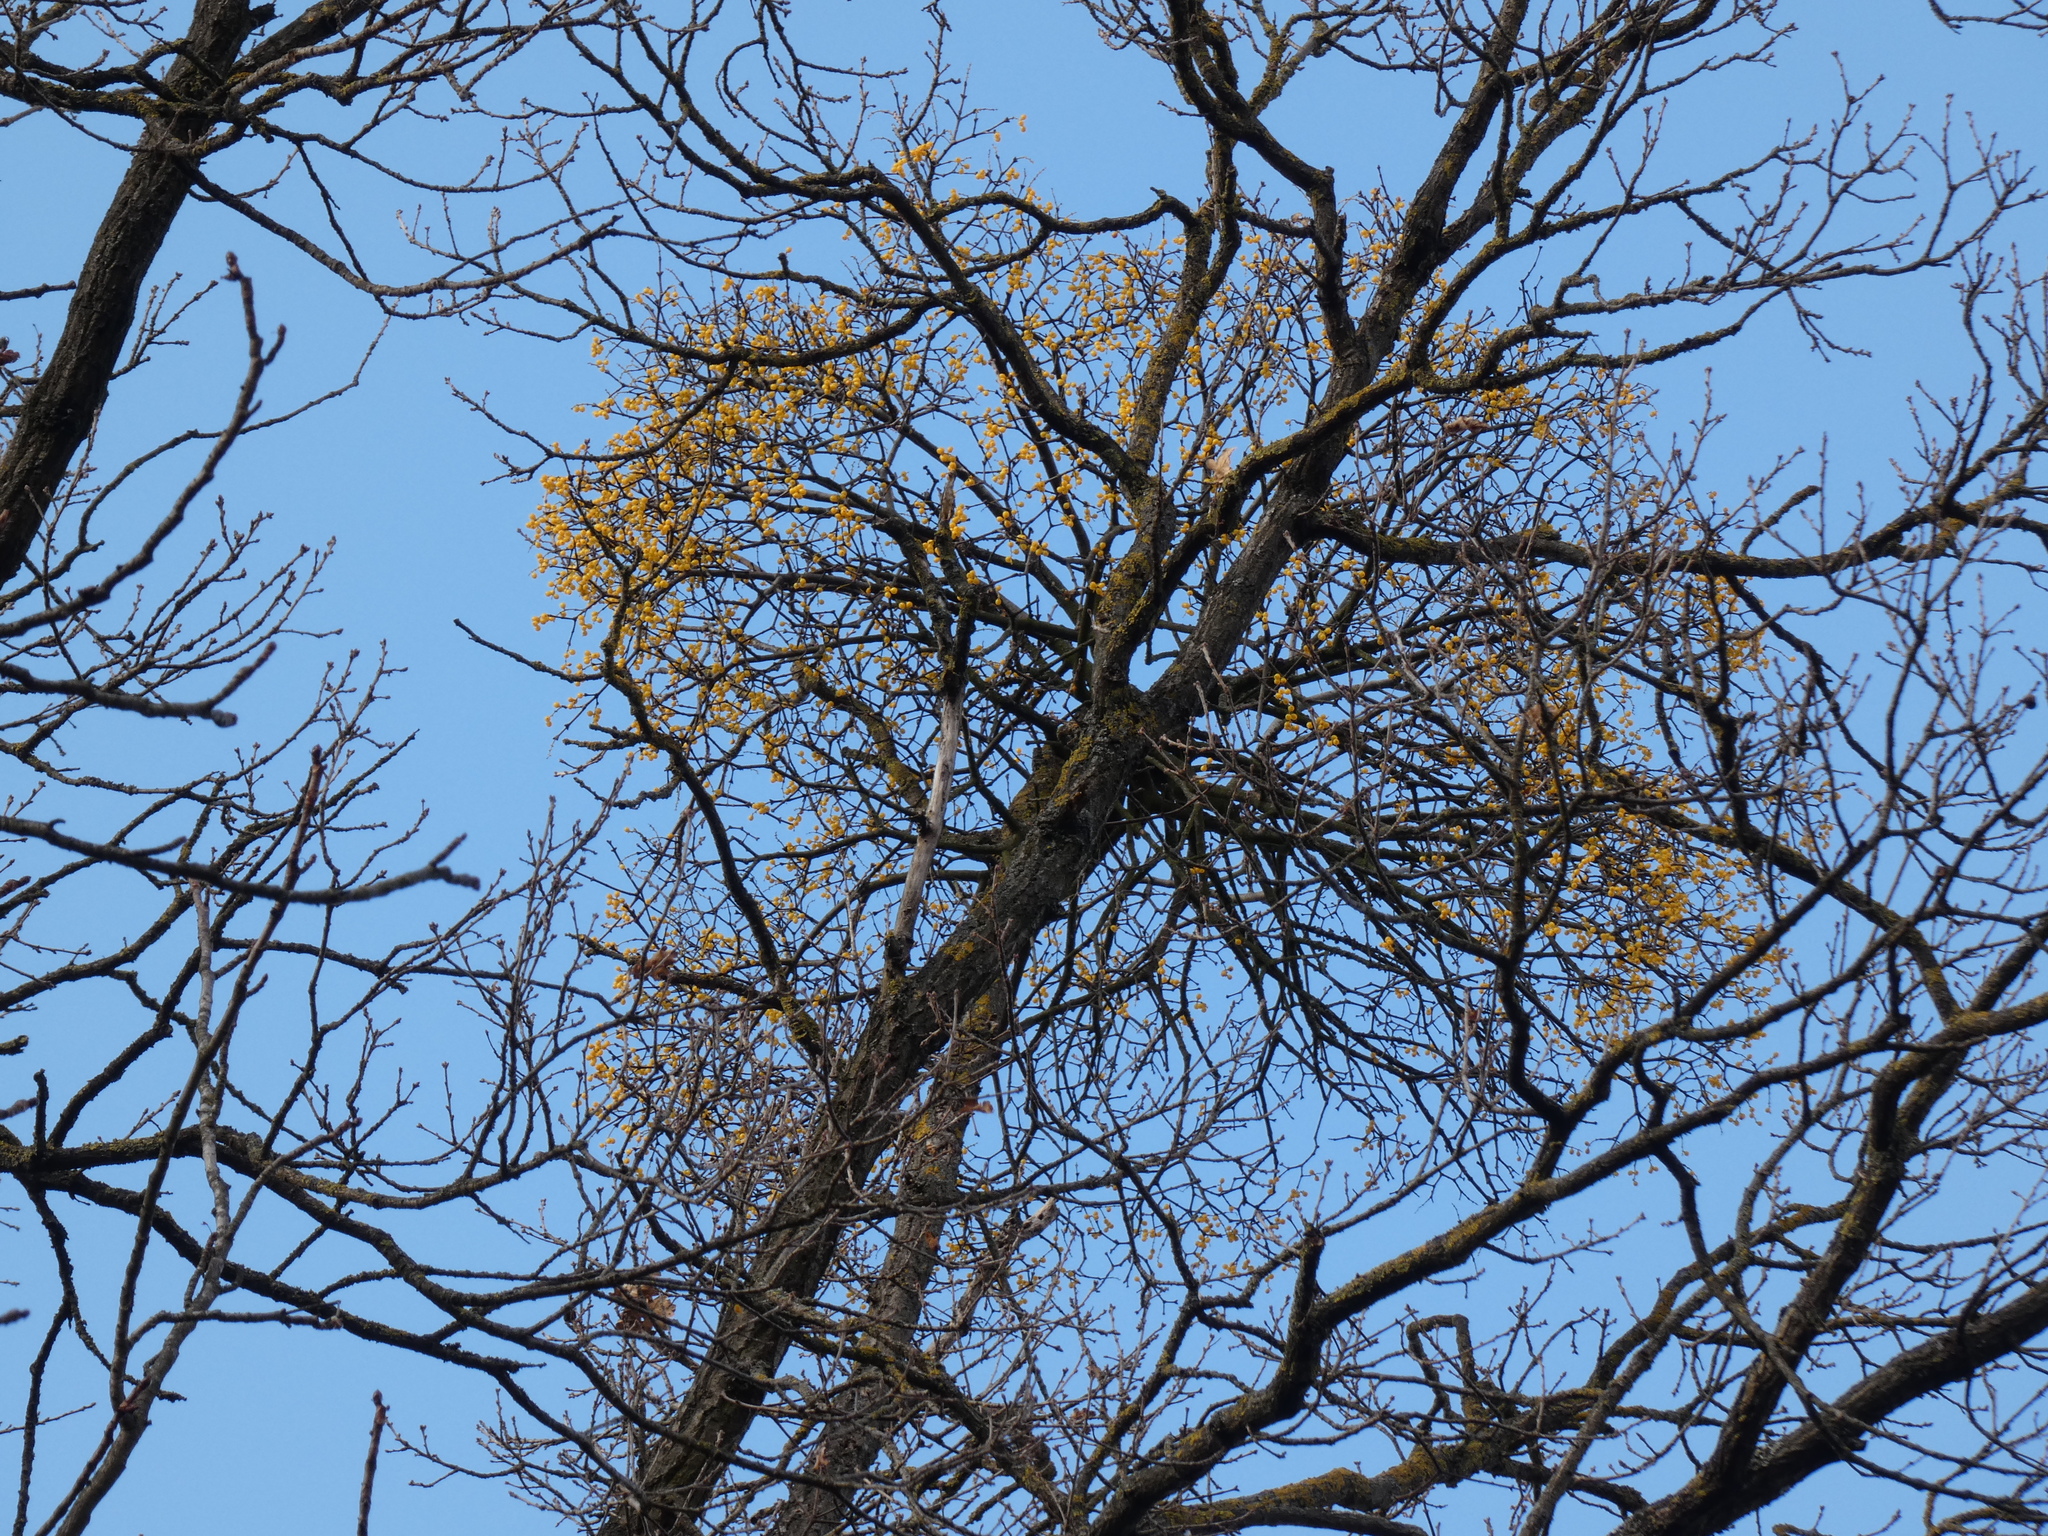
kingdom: Plantae
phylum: Tracheophyta
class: Magnoliopsida
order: Santalales
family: Loranthaceae
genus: Loranthus
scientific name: Loranthus europaeus
